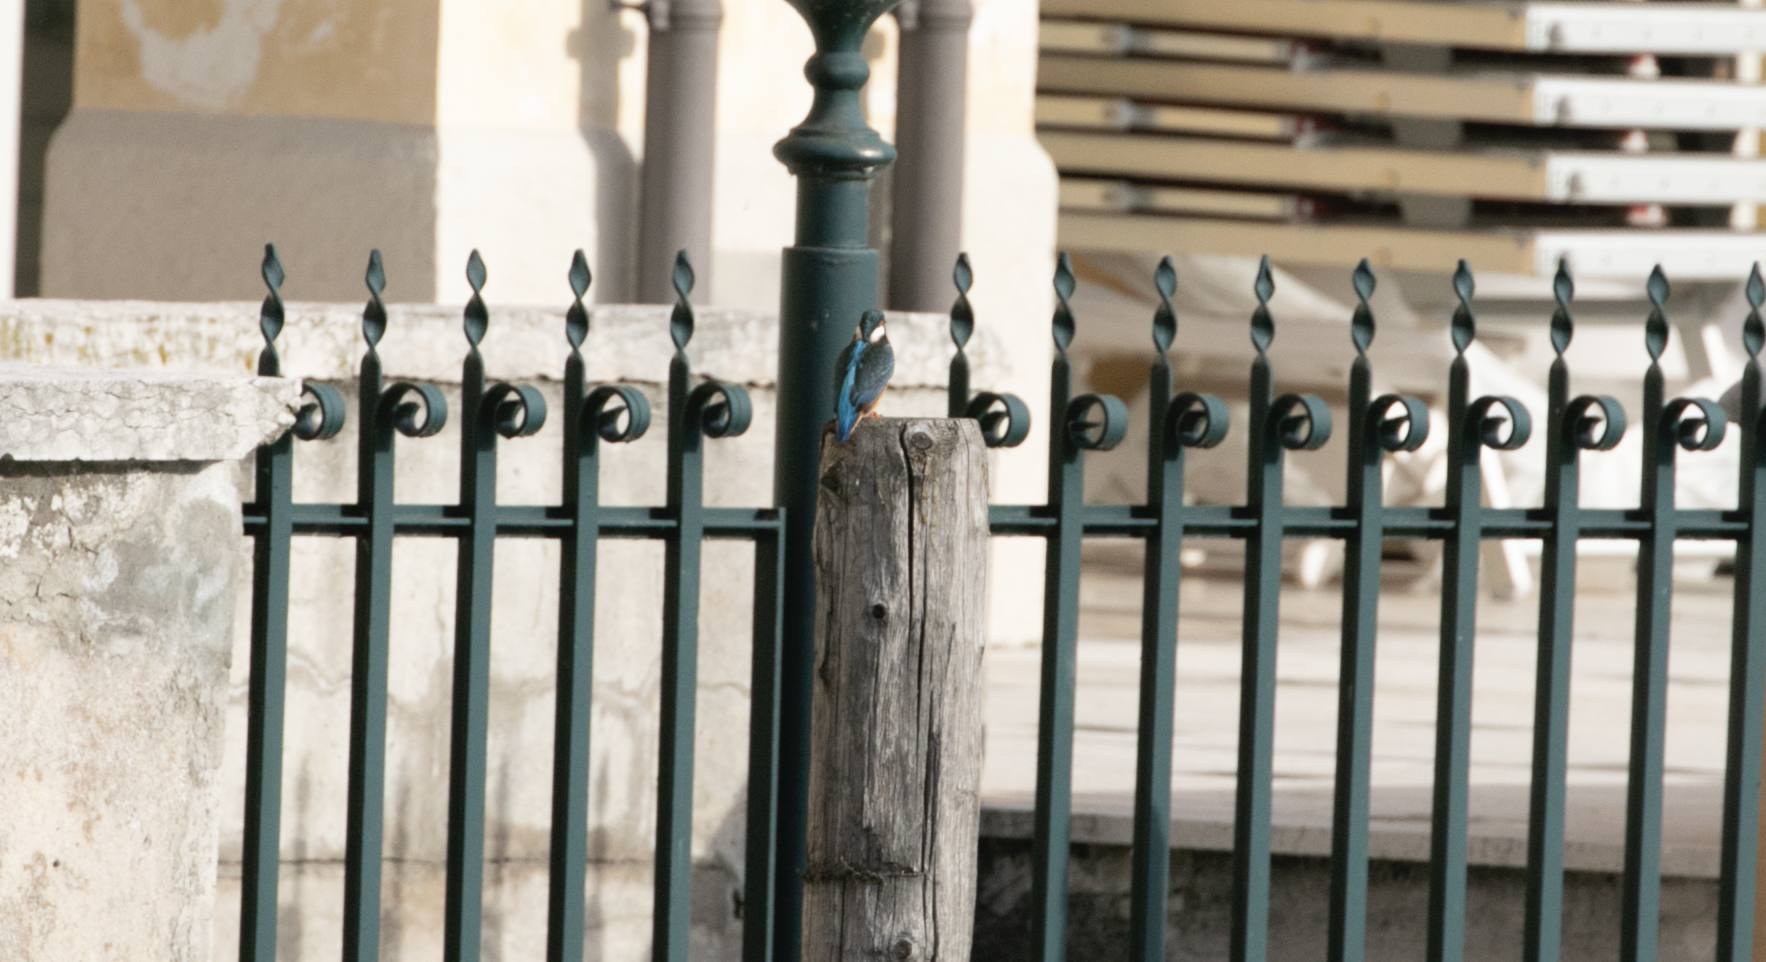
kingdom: Animalia
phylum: Chordata
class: Aves
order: Coraciiformes
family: Alcedinidae
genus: Alcedo
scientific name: Alcedo atthis
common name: Common kingfisher
